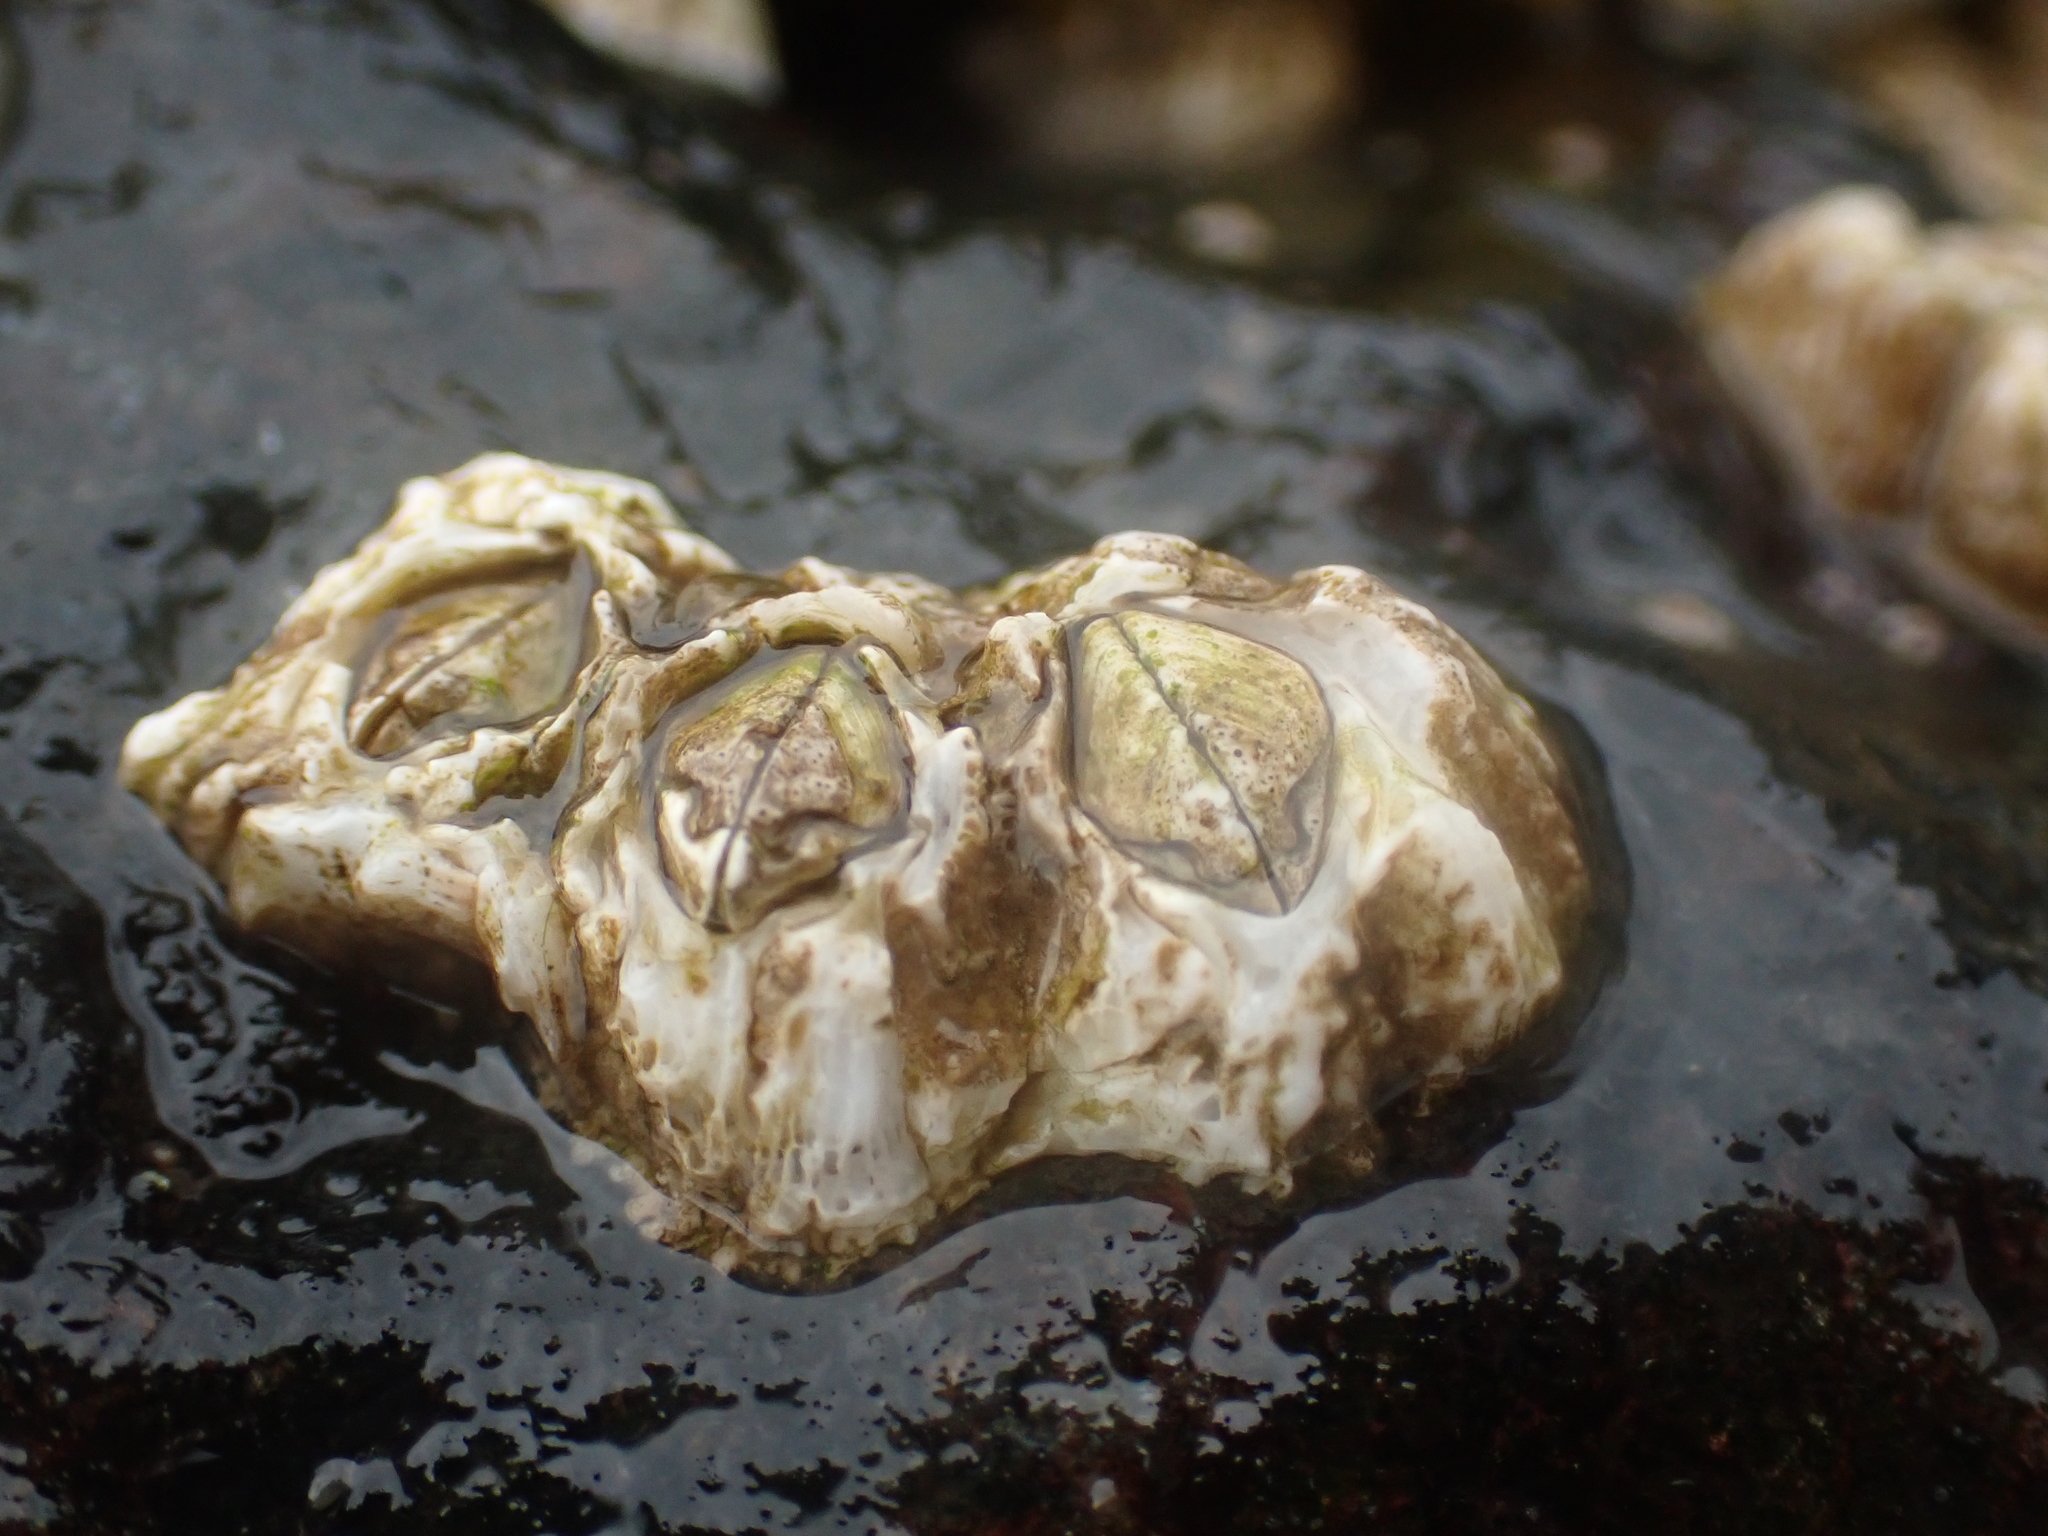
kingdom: Animalia
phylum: Arthropoda
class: Maxillopoda
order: Sessilia
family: Archaeobalanidae
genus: Semibalanus
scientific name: Semibalanus balanoides
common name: Acorn barnacle
